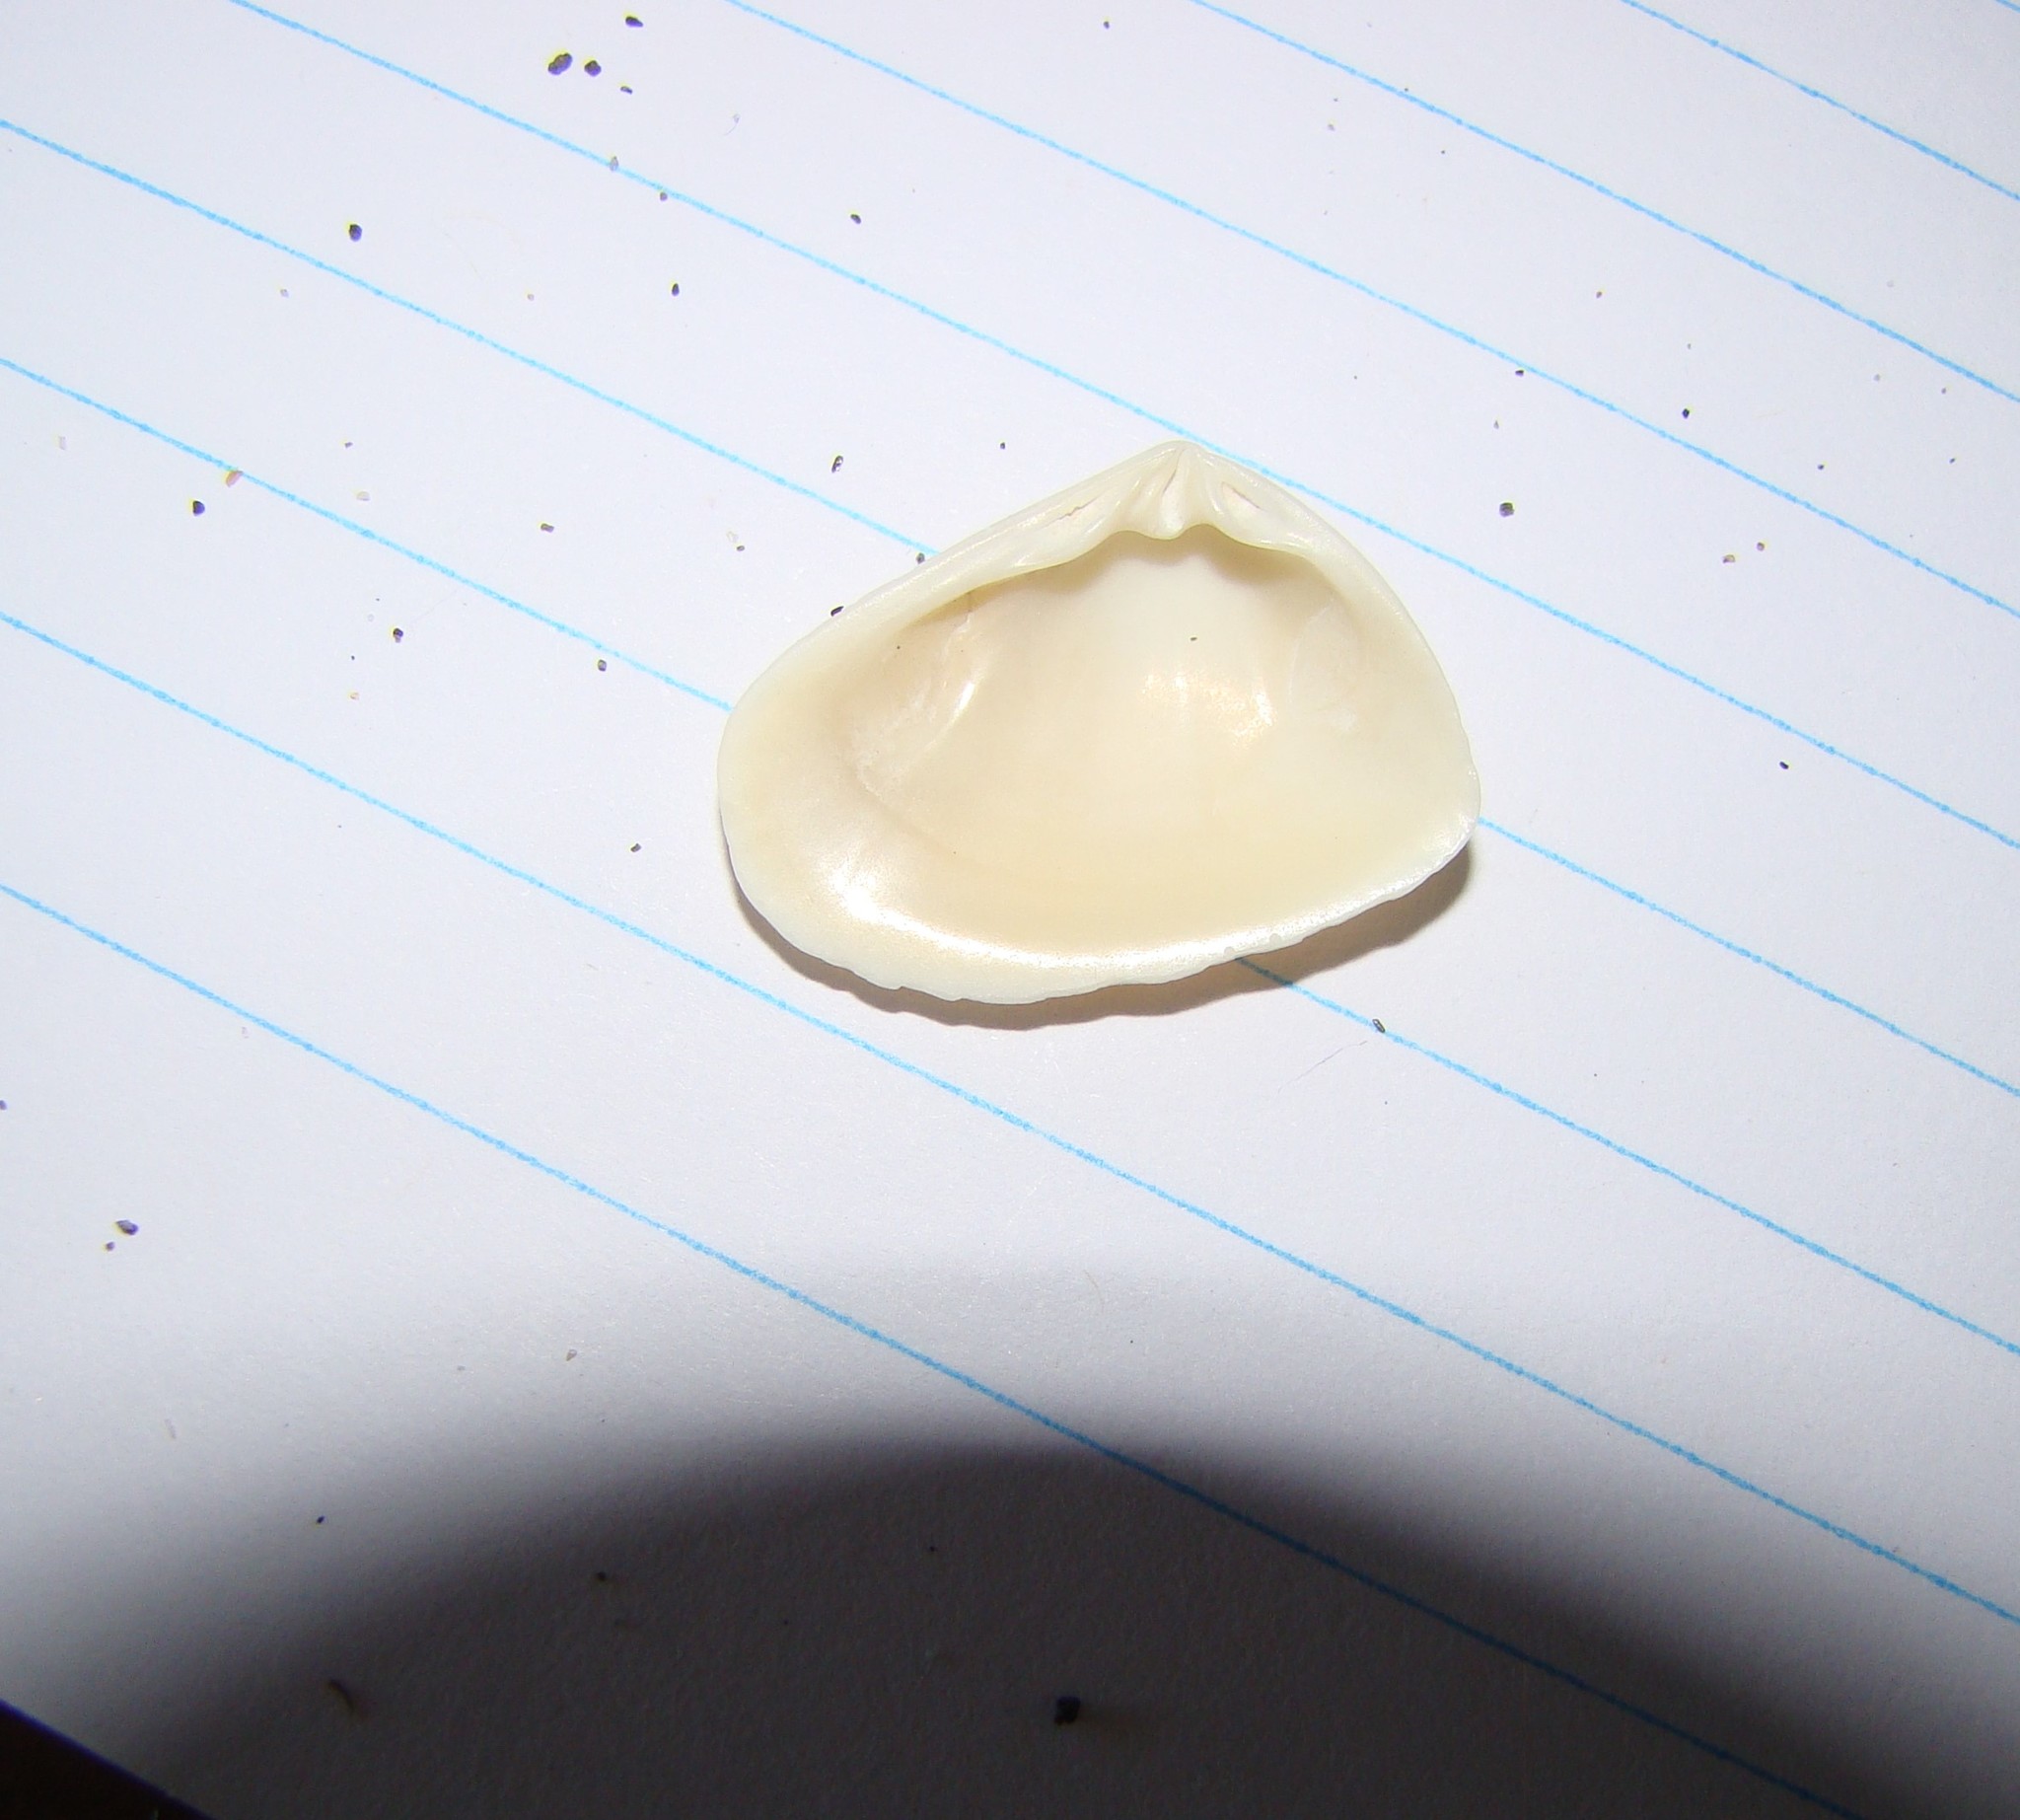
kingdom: Animalia
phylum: Mollusca
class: Bivalvia
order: Venerida
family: Mesodesmatidae
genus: Paphies
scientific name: Paphies donacina
